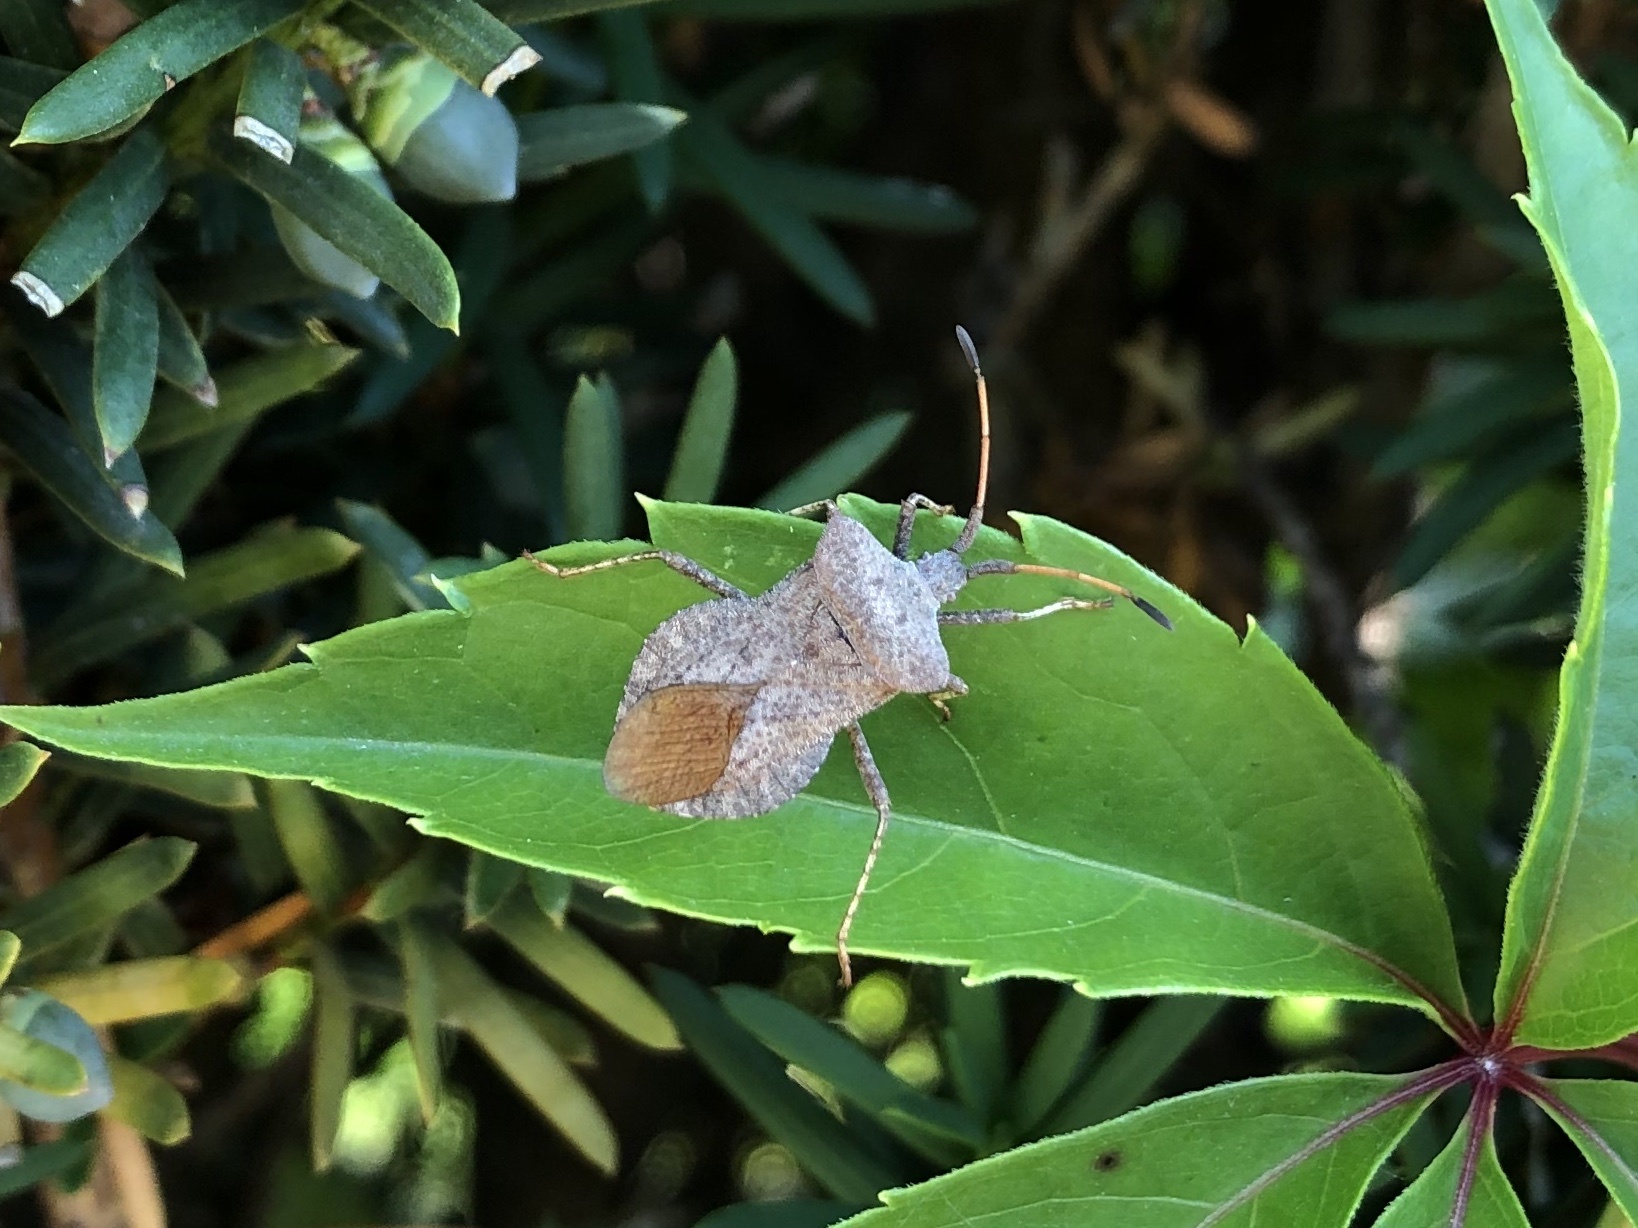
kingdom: Animalia
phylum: Arthropoda
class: Insecta
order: Hemiptera
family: Coreidae
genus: Coreus
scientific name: Coreus marginatus
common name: Dock bug
